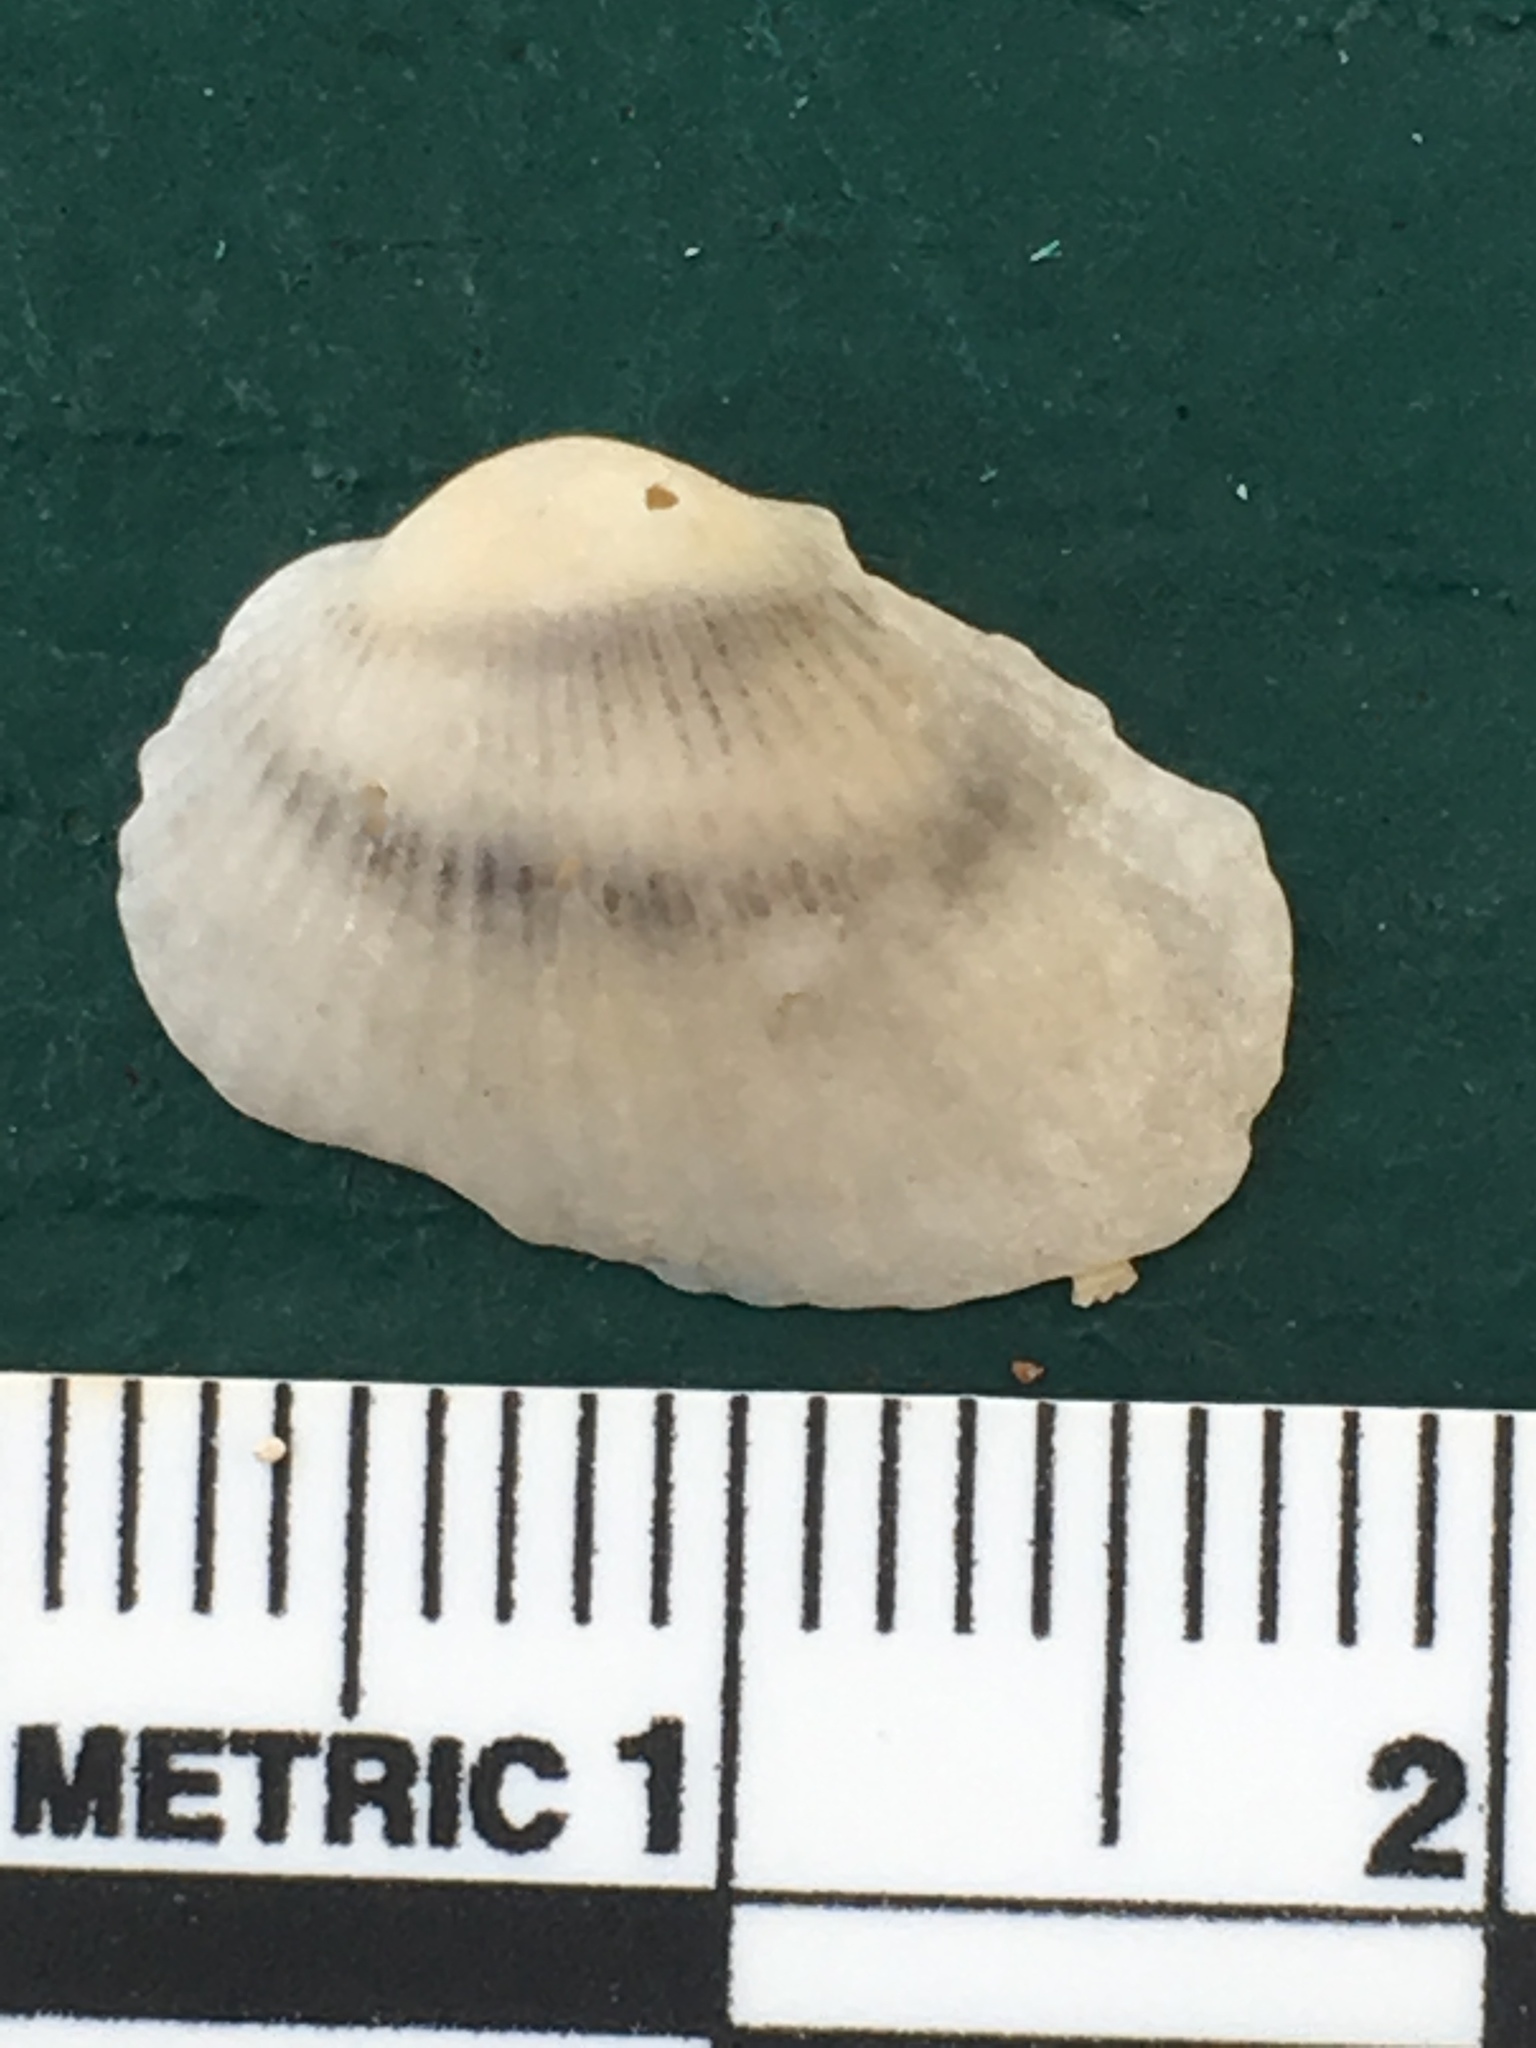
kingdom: Animalia
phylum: Mollusca
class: Bivalvia
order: Arcida
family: Arcidae
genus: Anadara
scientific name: Anadara transversa
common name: Transverse ark
